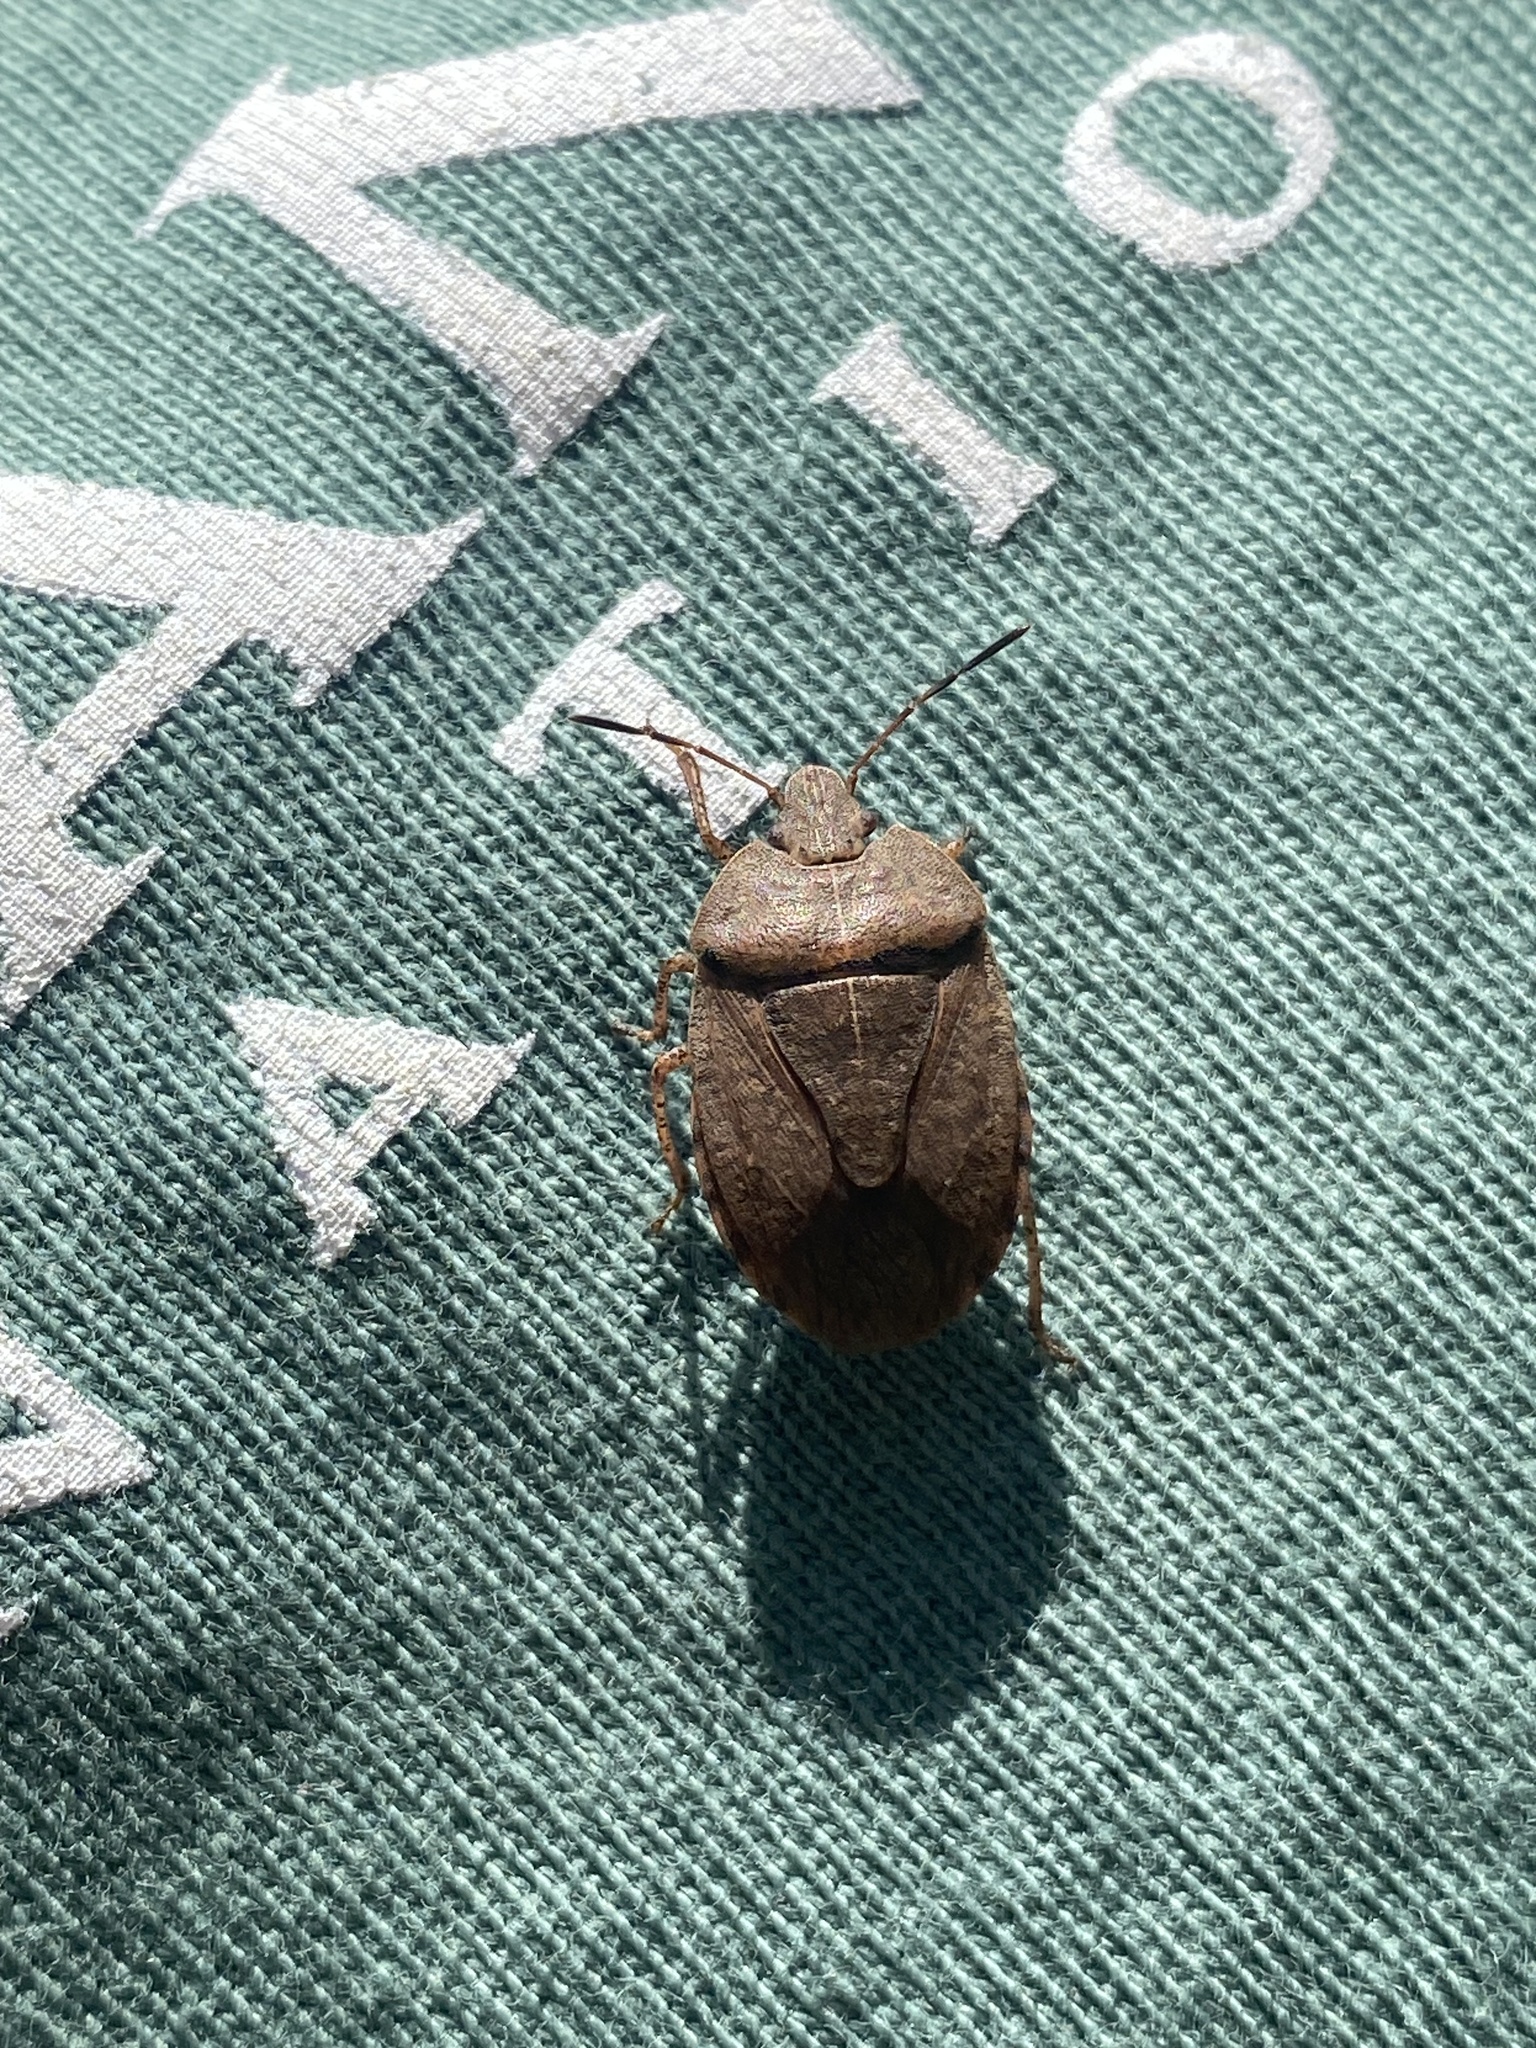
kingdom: Animalia
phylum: Arthropoda
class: Insecta
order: Hemiptera
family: Pentatomidae
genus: Menecles
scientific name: Menecles insertus
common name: Elf shoe stink bug
